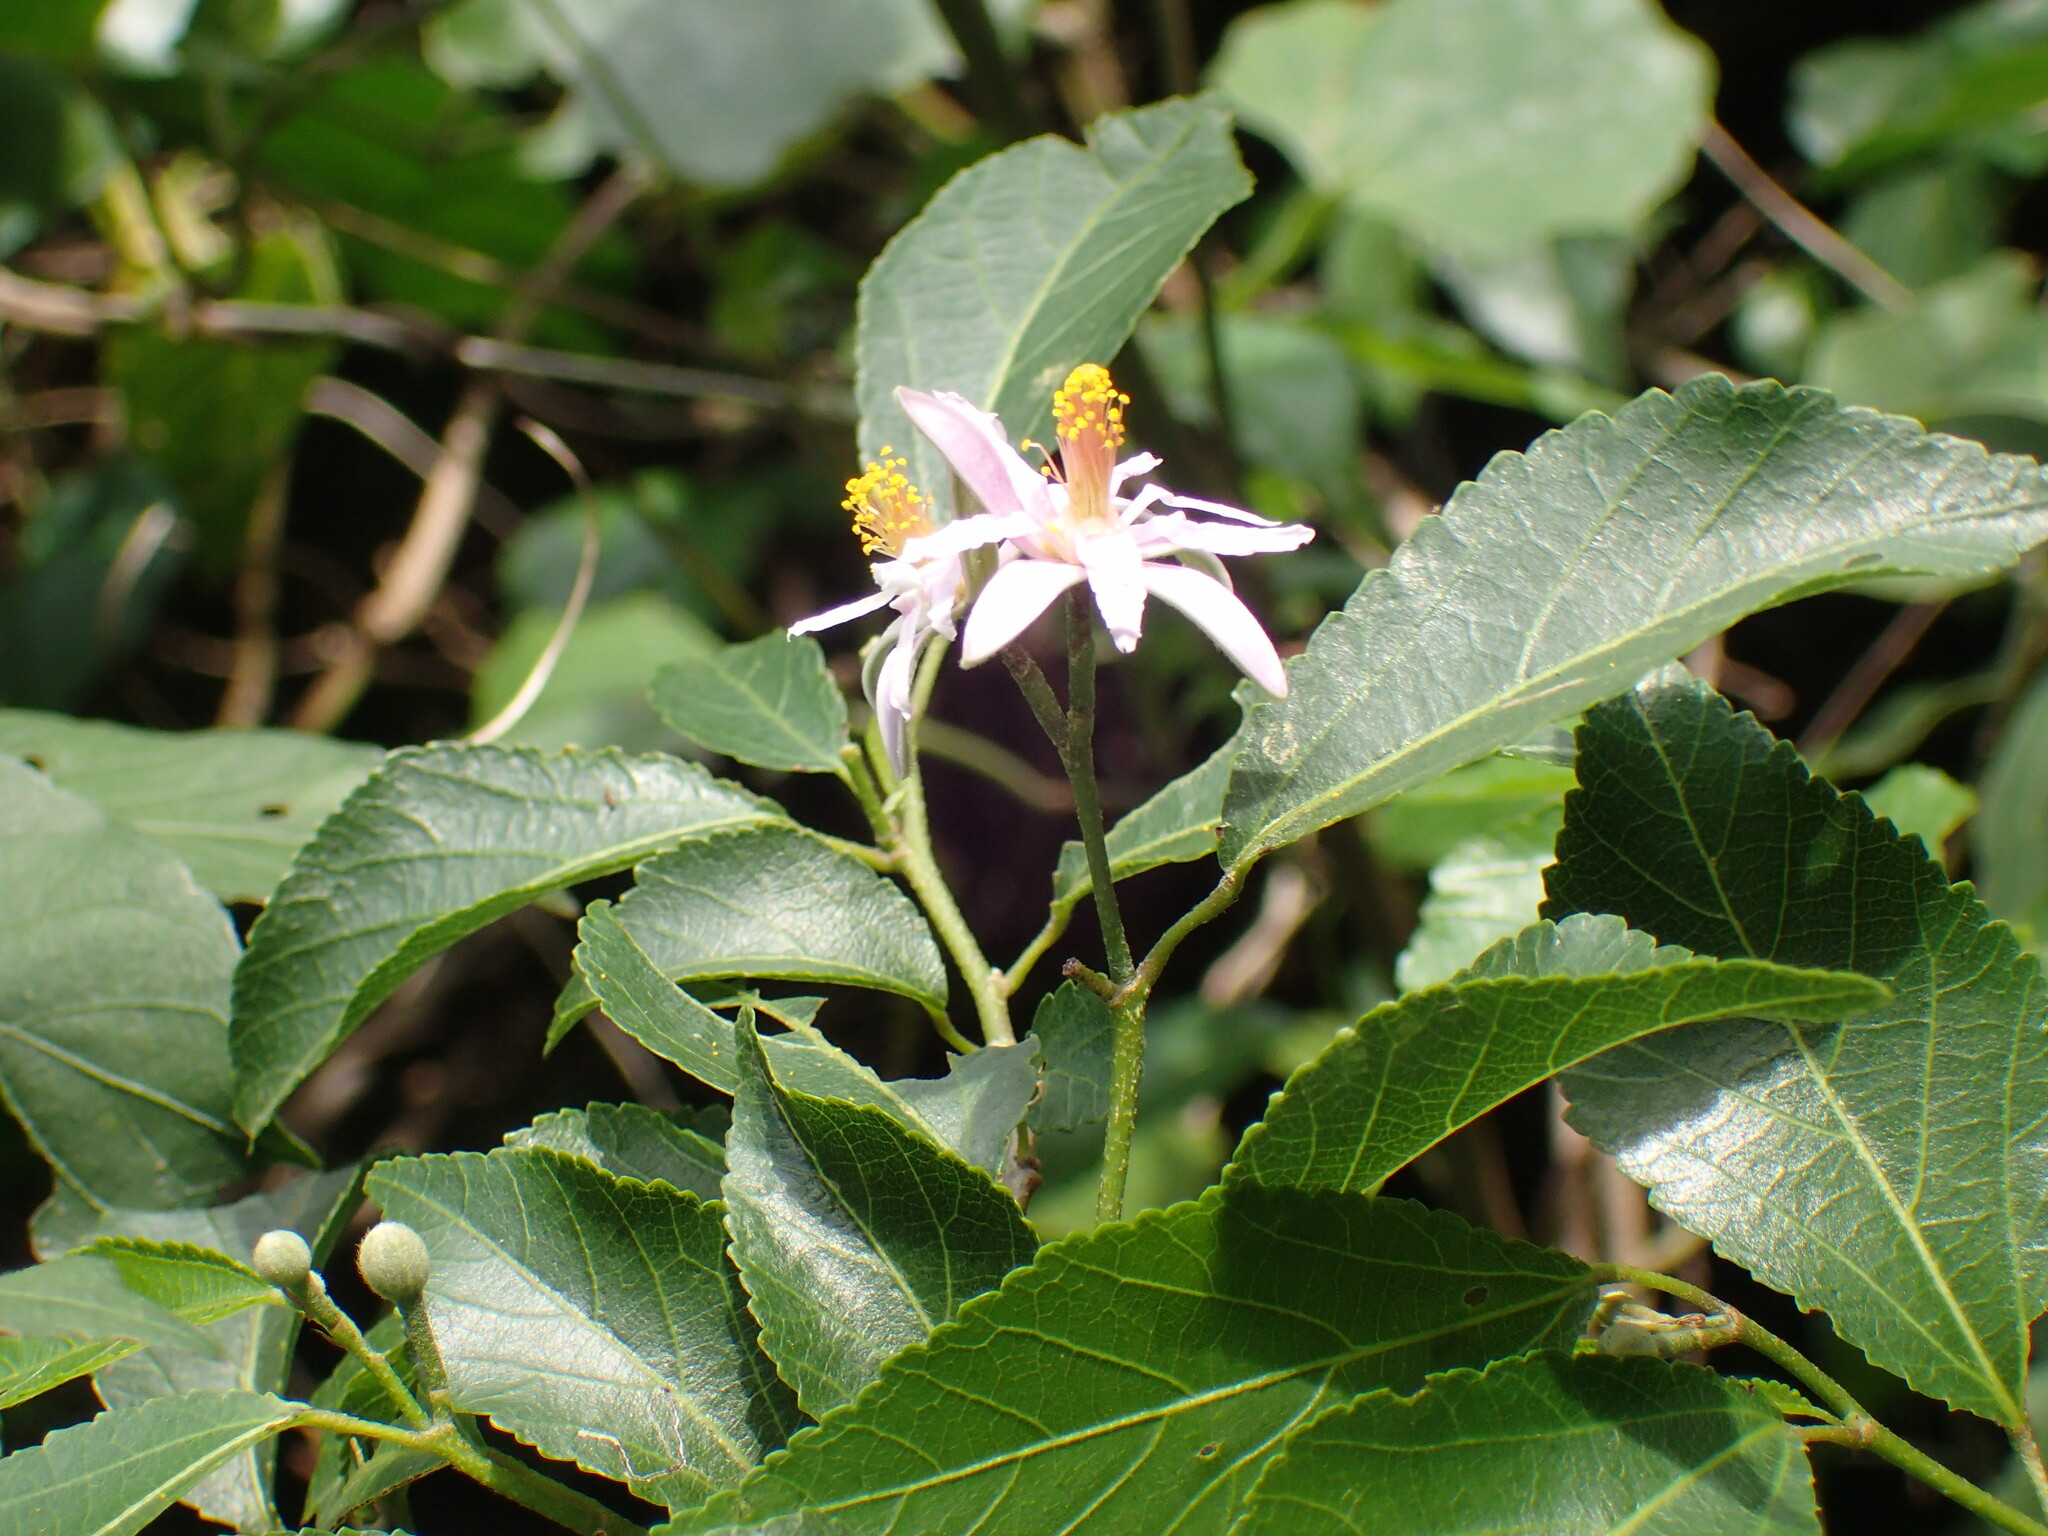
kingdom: Plantae
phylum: Tracheophyta
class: Magnoliopsida
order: Malvales
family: Malvaceae
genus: Grewia
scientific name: Grewia occidentalis
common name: Crossberry
